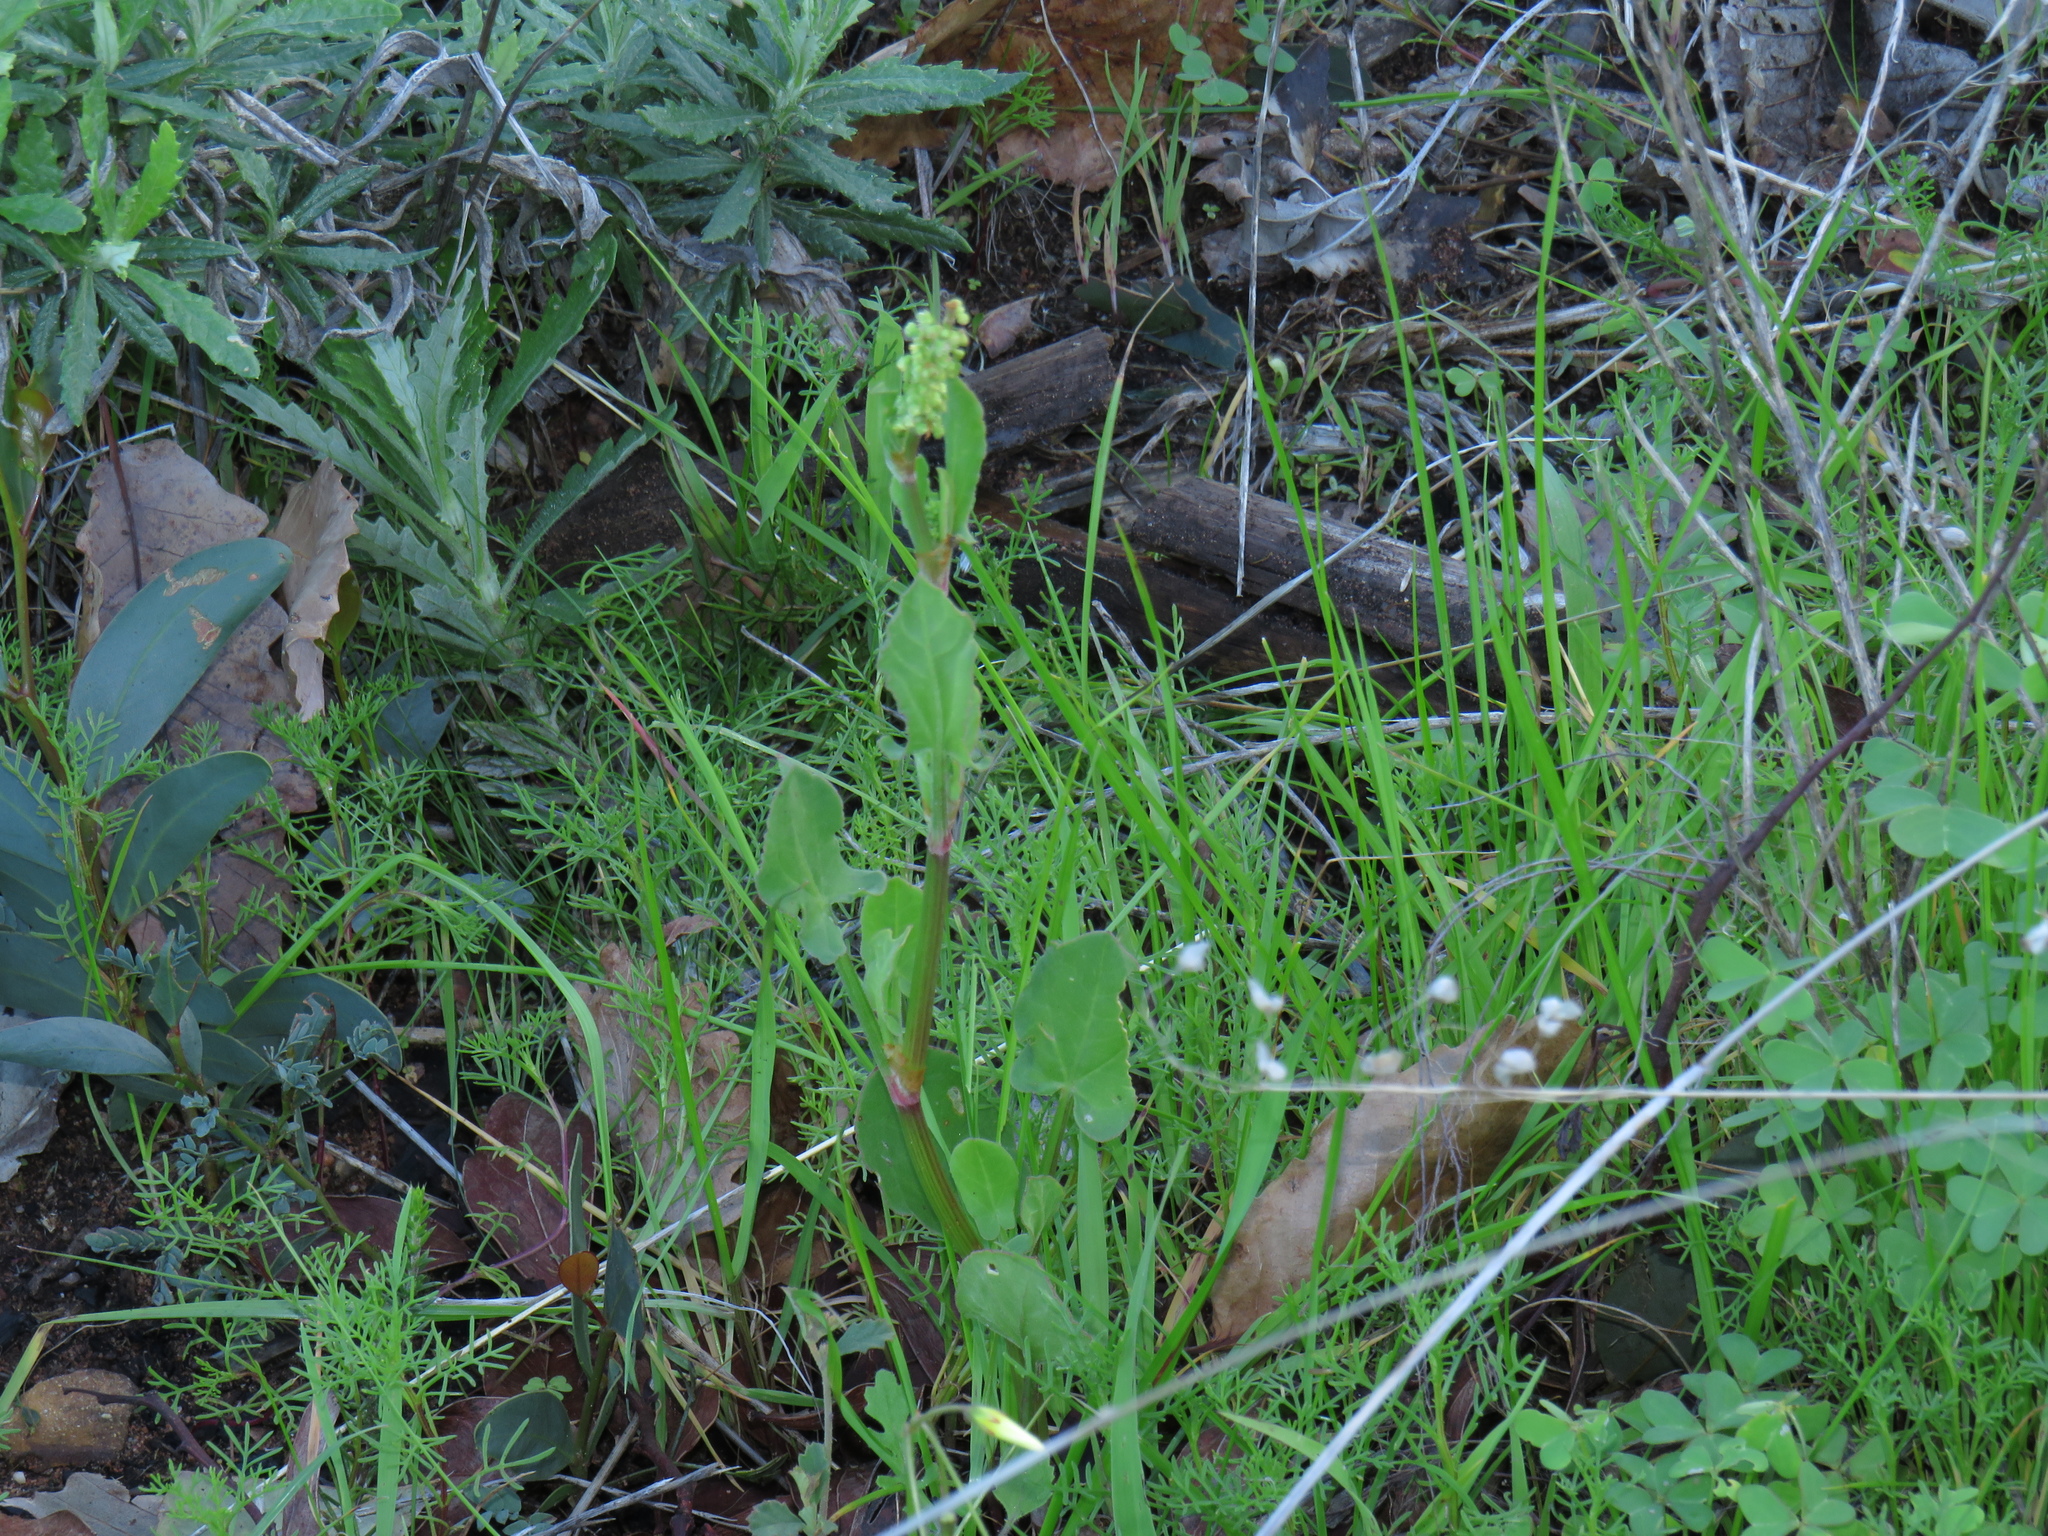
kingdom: Plantae
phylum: Tracheophyta
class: Magnoliopsida
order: Caryophyllales
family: Polygonaceae
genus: Rumex
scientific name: Rumex lativalvis
